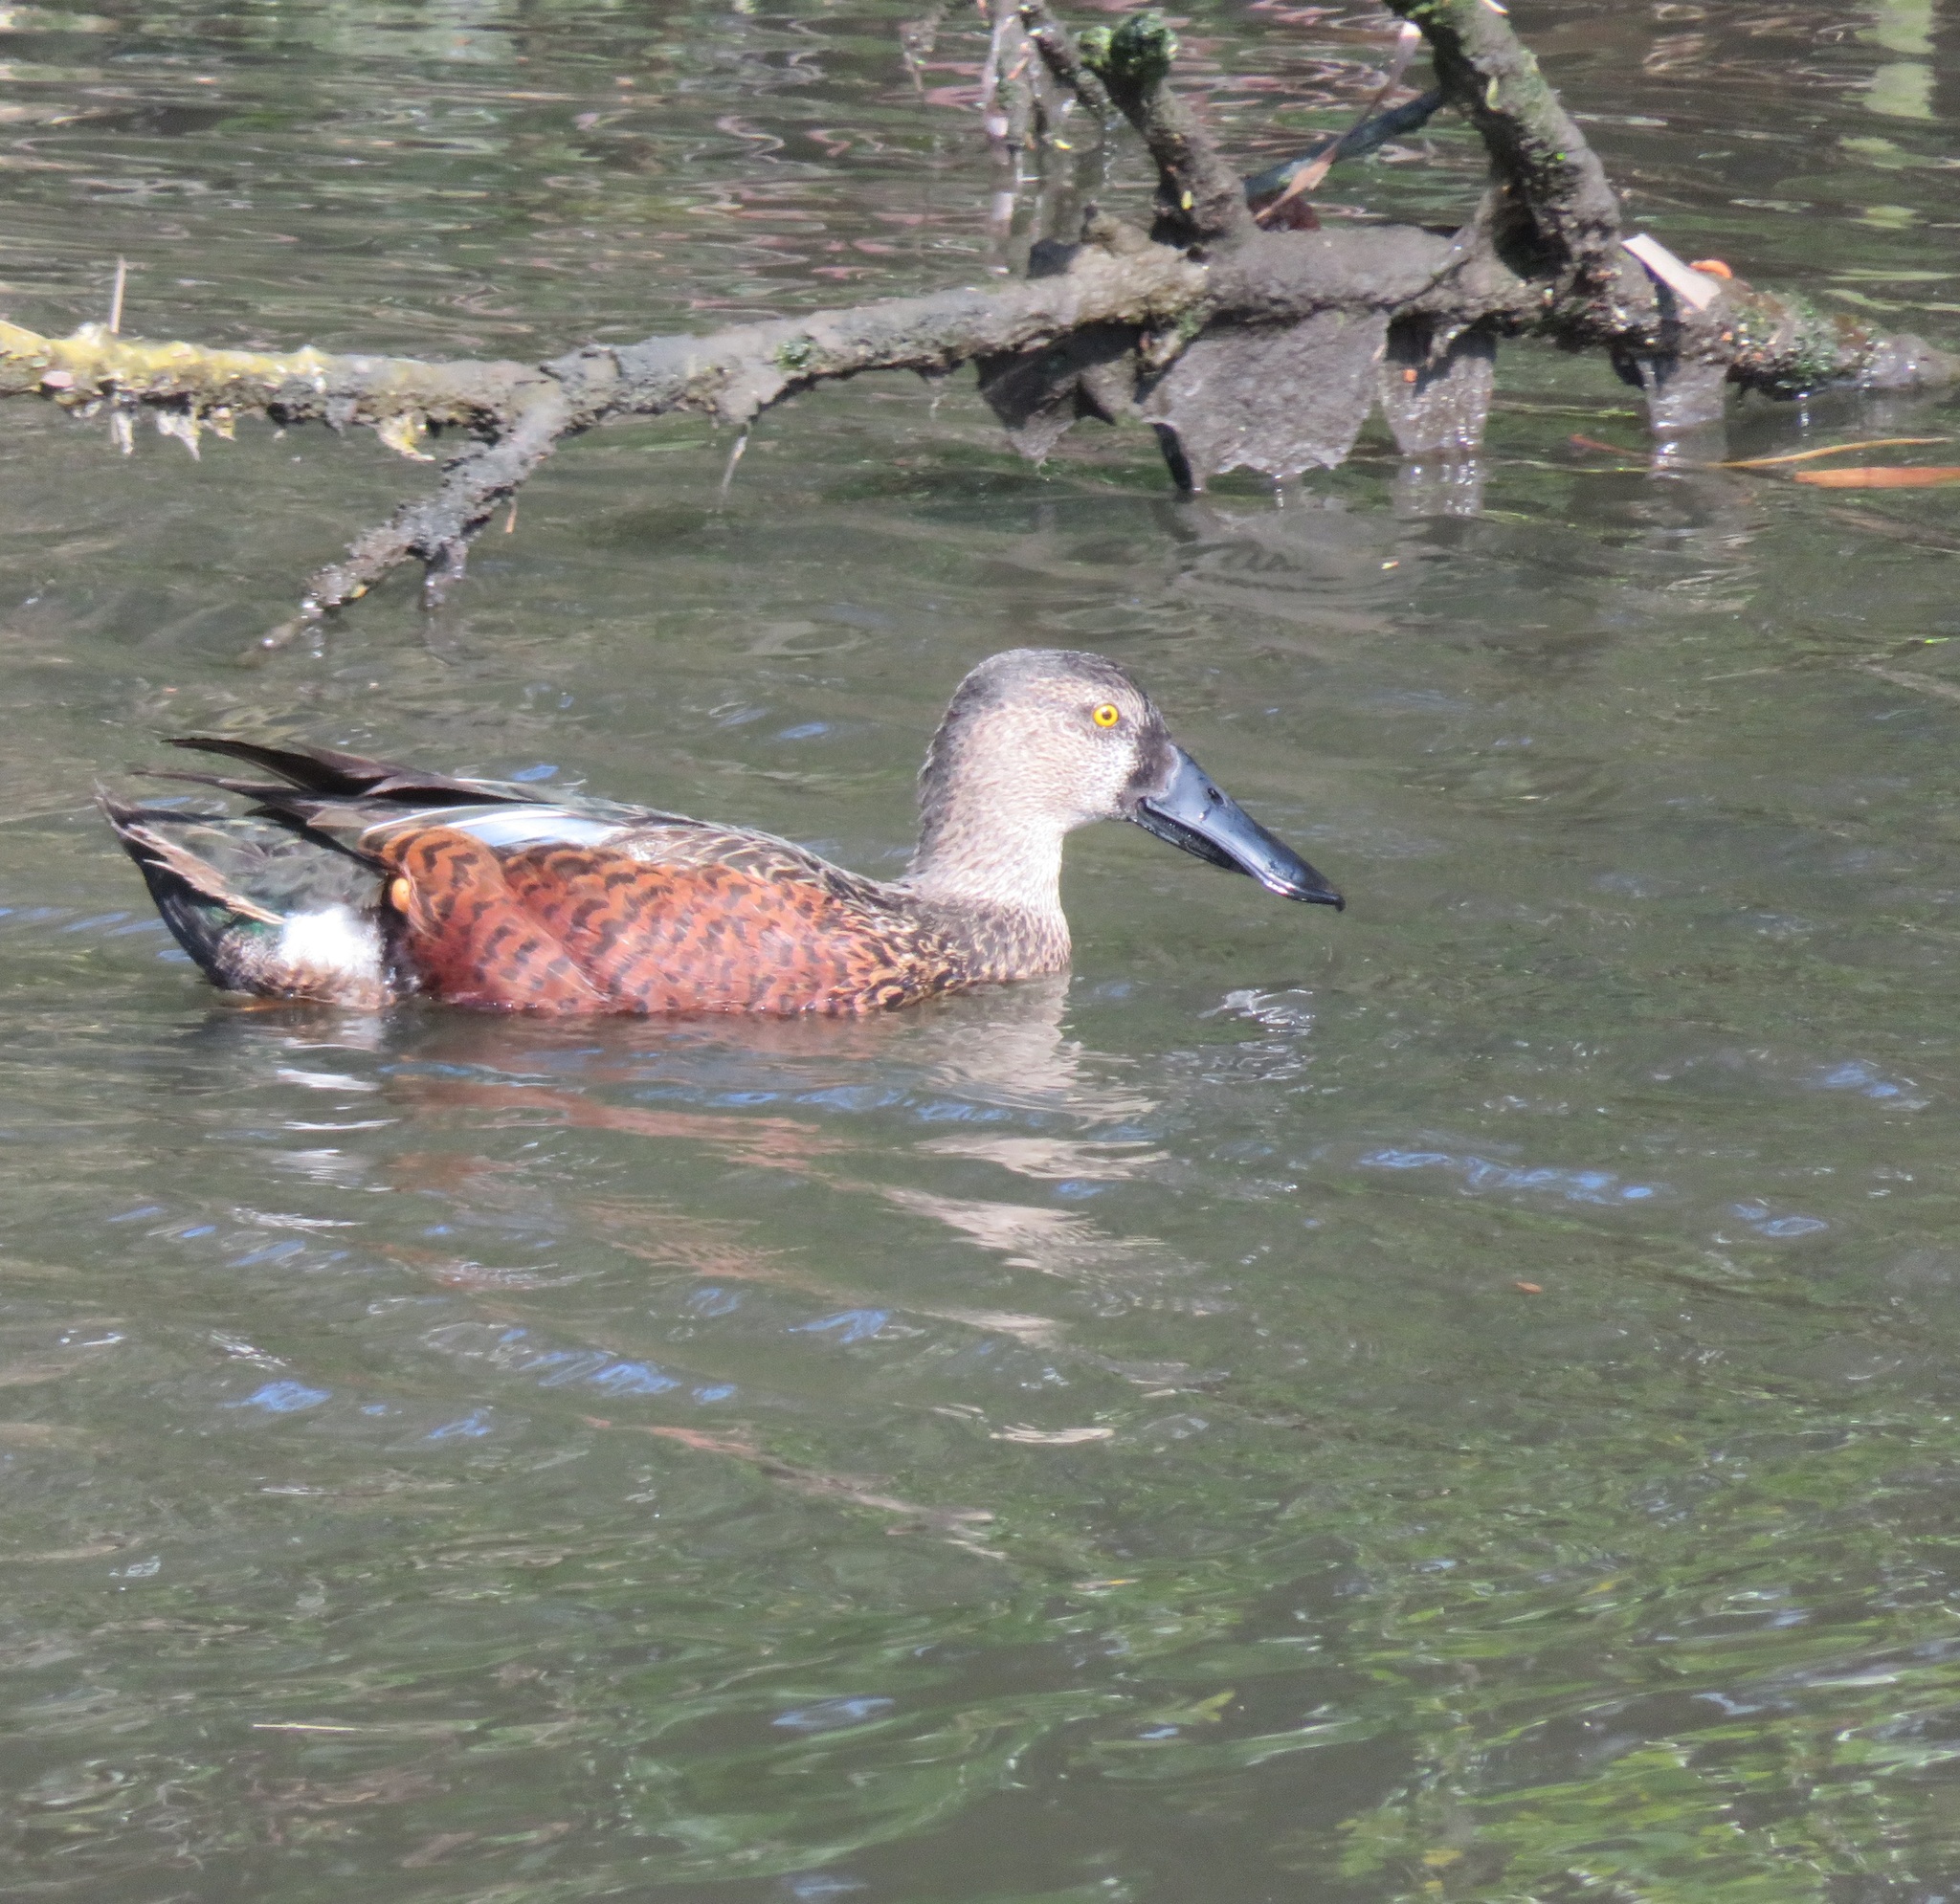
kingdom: Animalia
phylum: Chordata
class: Aves
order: Anseriformes
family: Anatidae
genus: Spatula
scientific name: Spatula rhynchotis
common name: Australian shoveler
